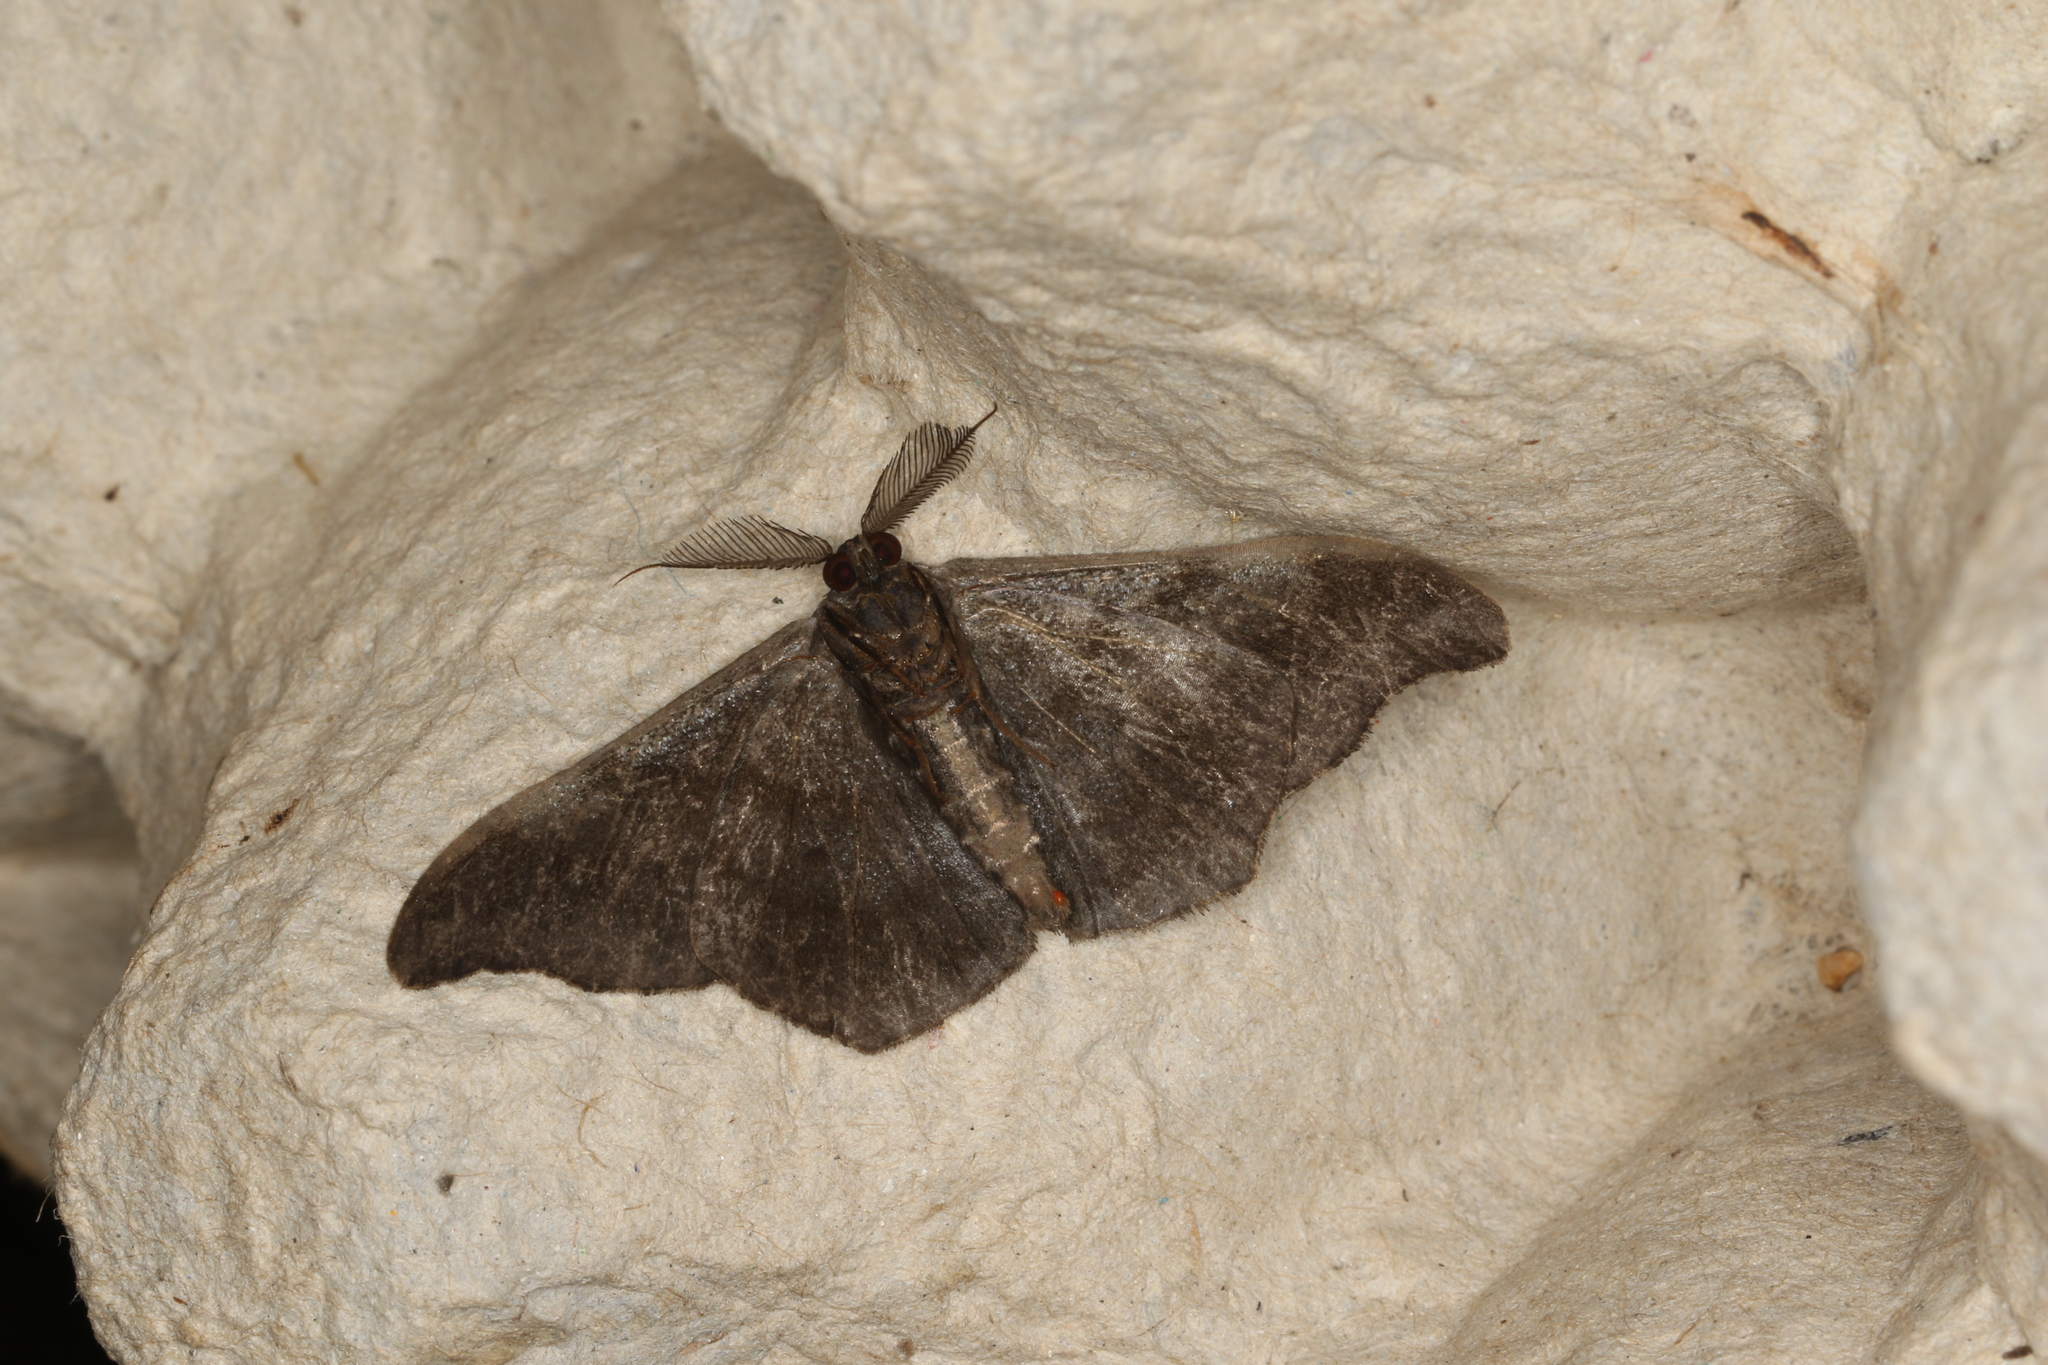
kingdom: Animalia
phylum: Arthropoda
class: Insecta
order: Lepidoptera
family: Geometridae
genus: Hyposidra
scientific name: Hyposidra talaca
